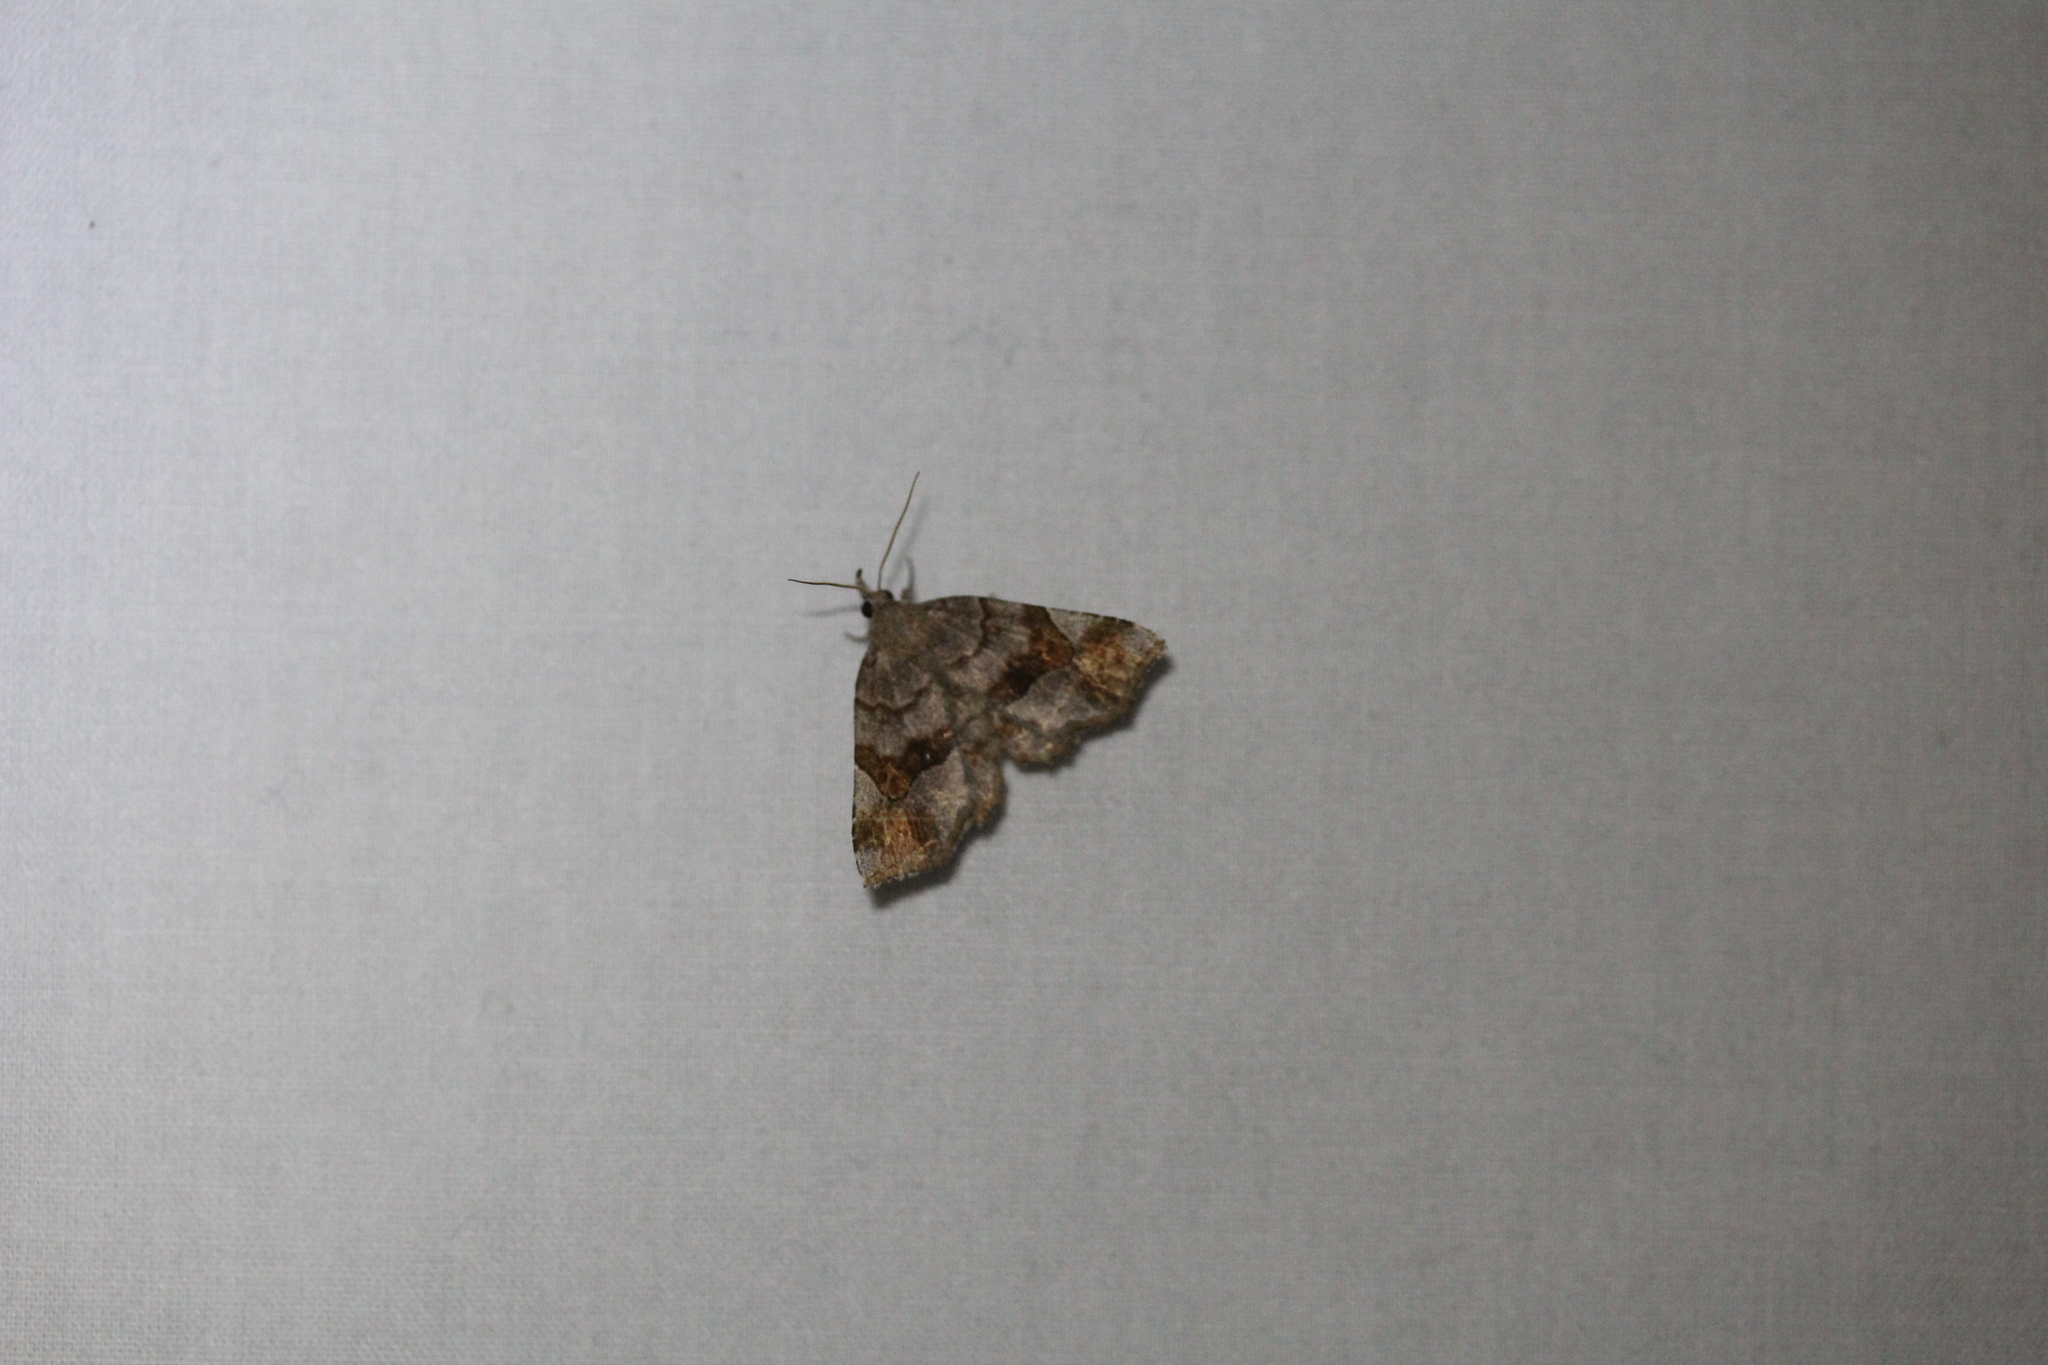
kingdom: Animalia
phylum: Arthropoda
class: Insecta
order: Lepidoptera
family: Erebidae
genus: Pangrapta
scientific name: Pangrapta decoralis
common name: Decorated owlet
